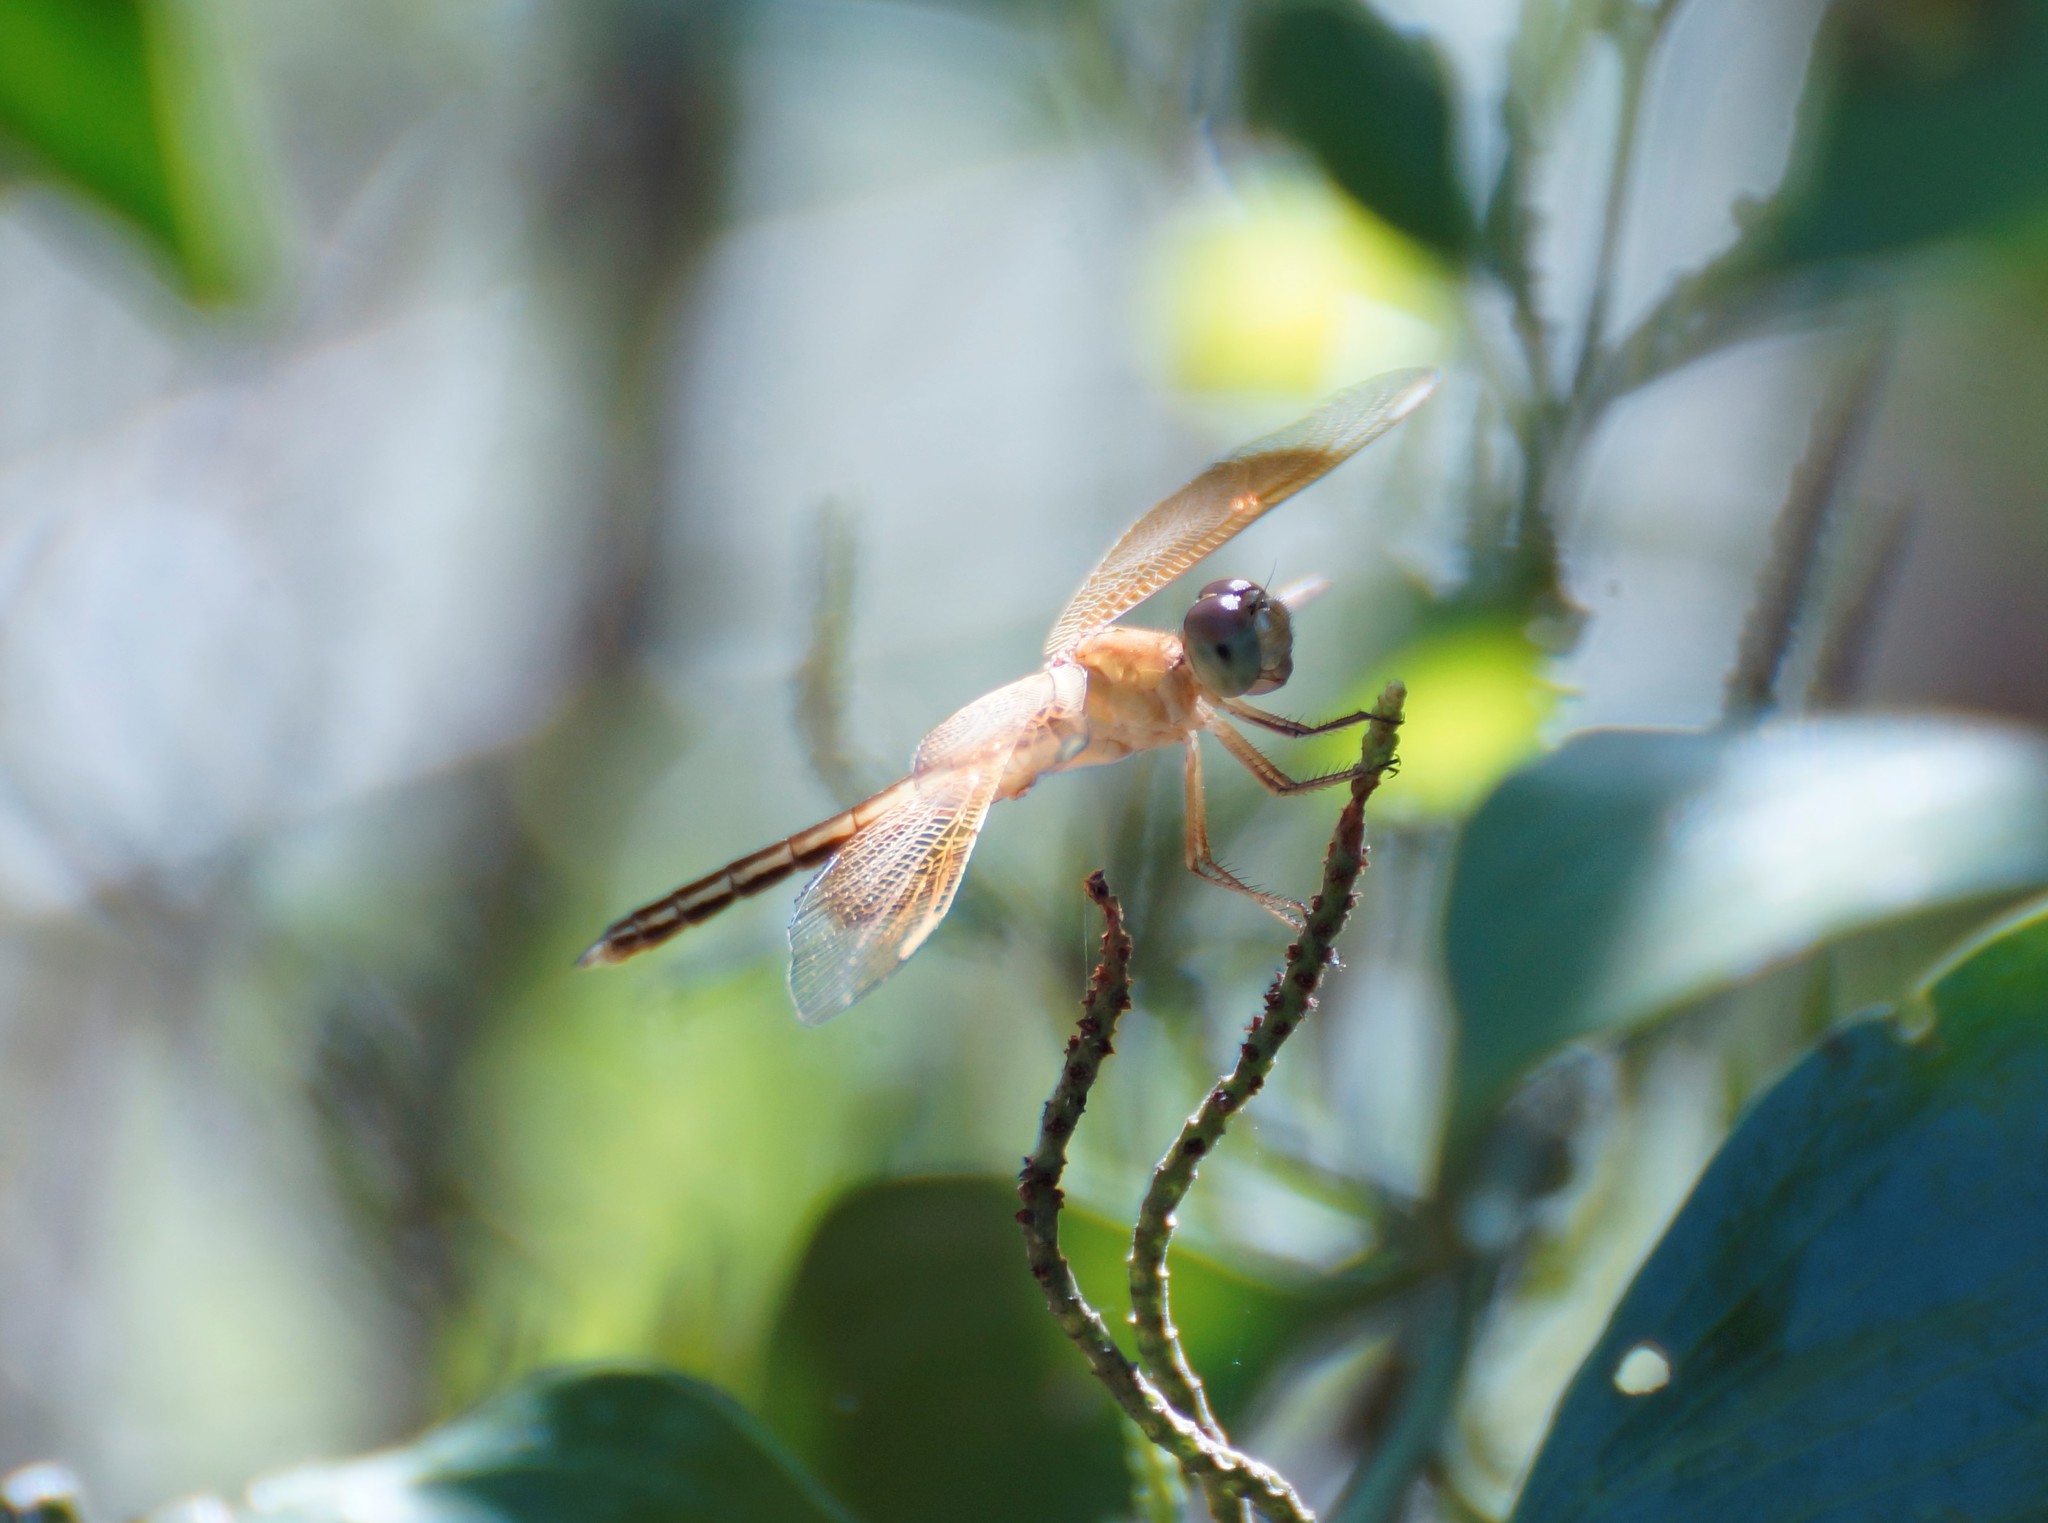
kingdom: Animalia
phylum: Arthropoda
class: Insecta
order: Odonata
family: Libellulidae
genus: Neurothemis
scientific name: Neurothemis stigmatizans
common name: Painted grasshawk
